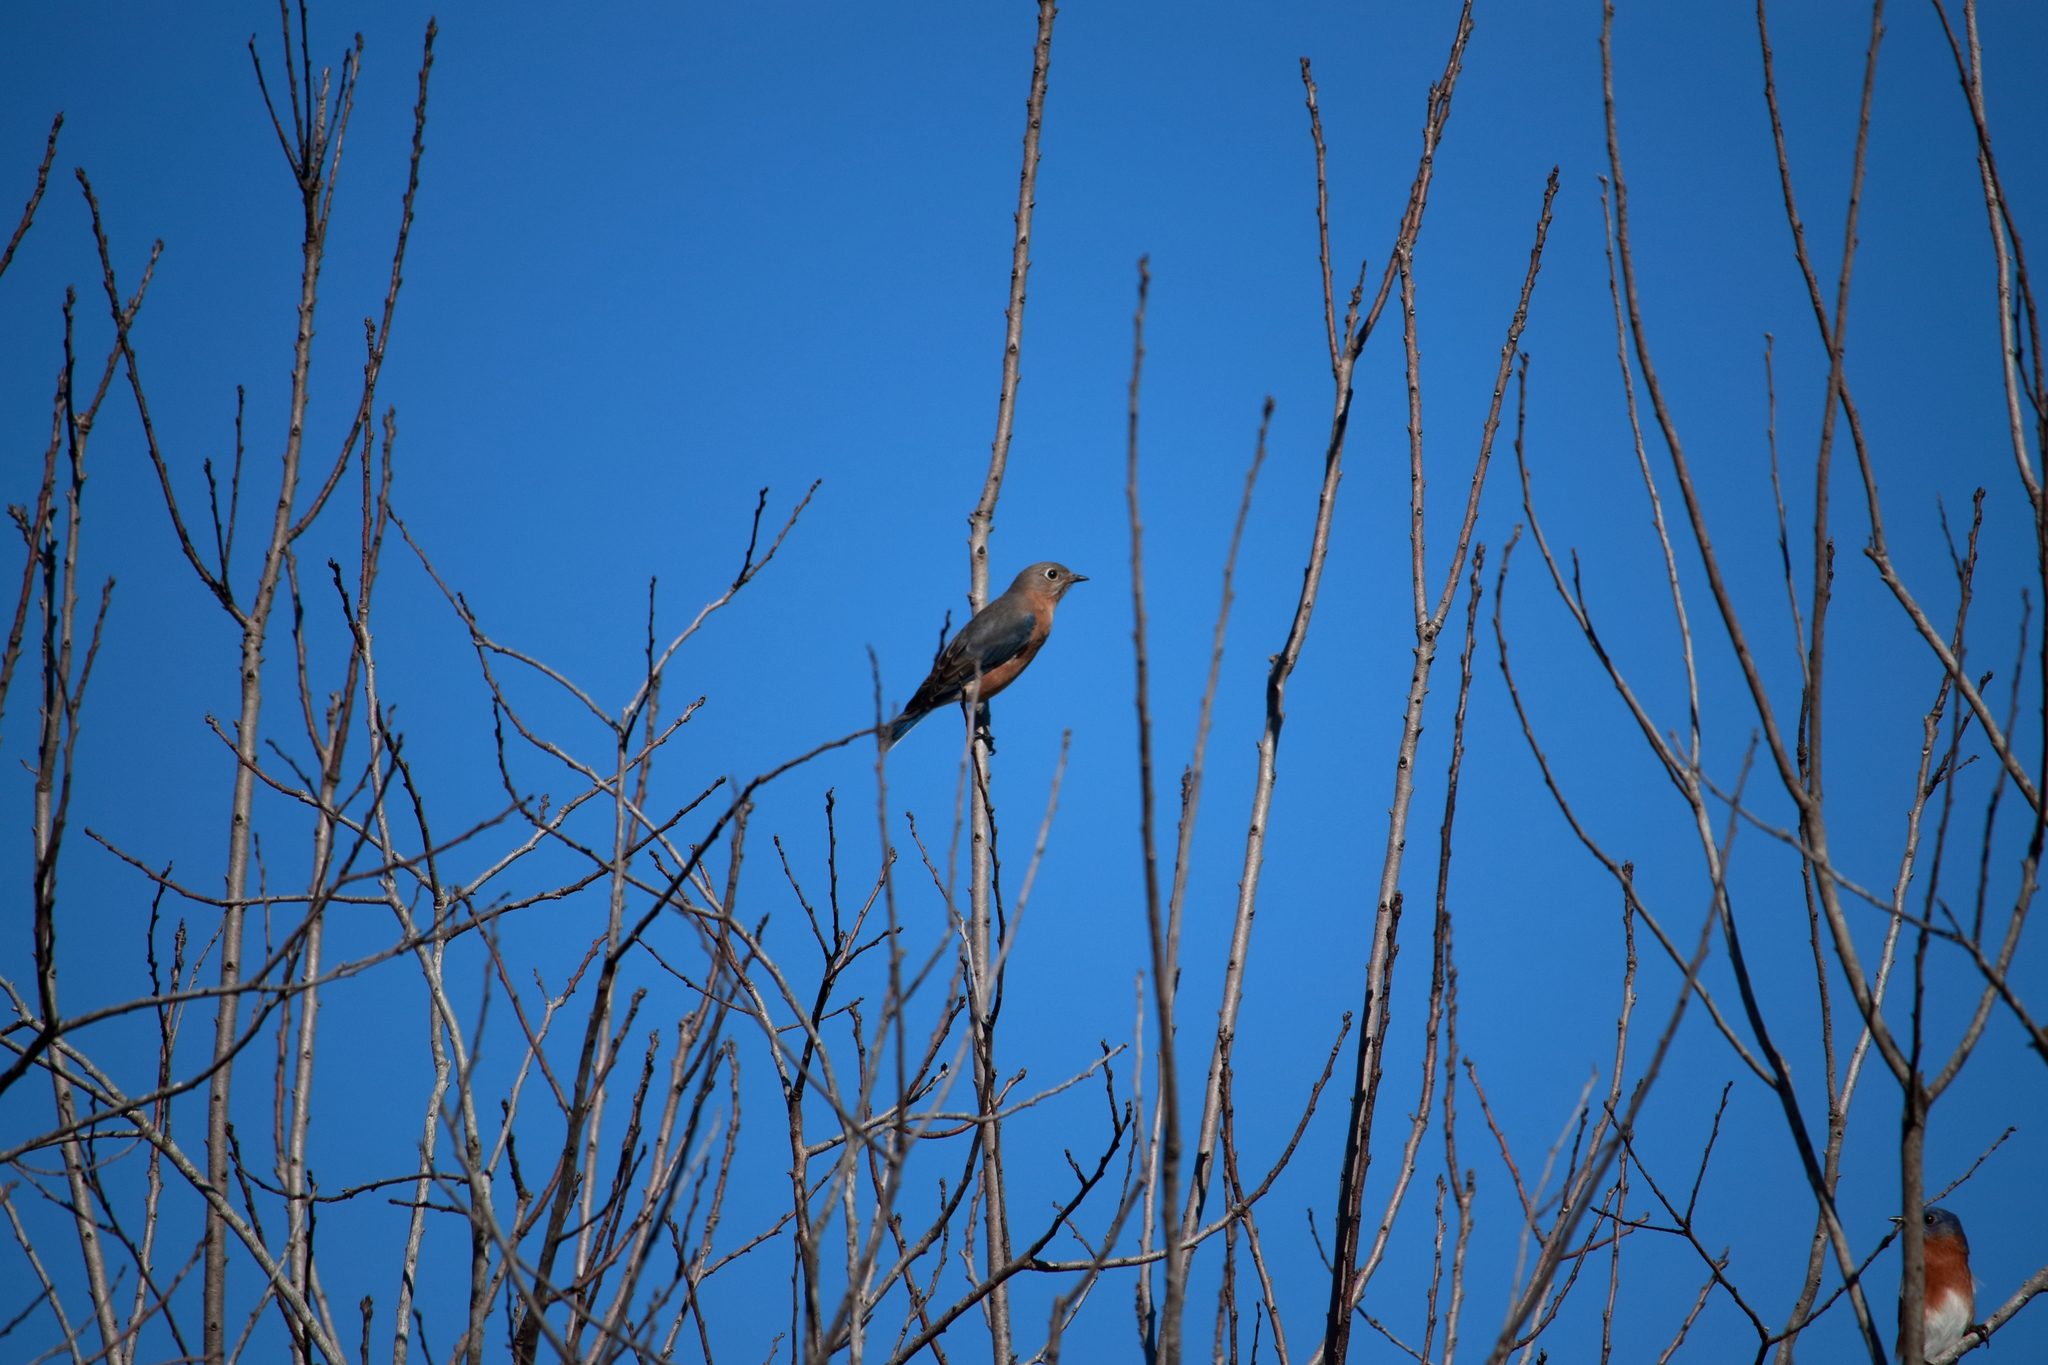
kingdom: Animalia
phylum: Chordata
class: Aves
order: Passeriformes
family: Turdidae
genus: Sialia
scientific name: Sialia sialis
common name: Eastern bluebird
